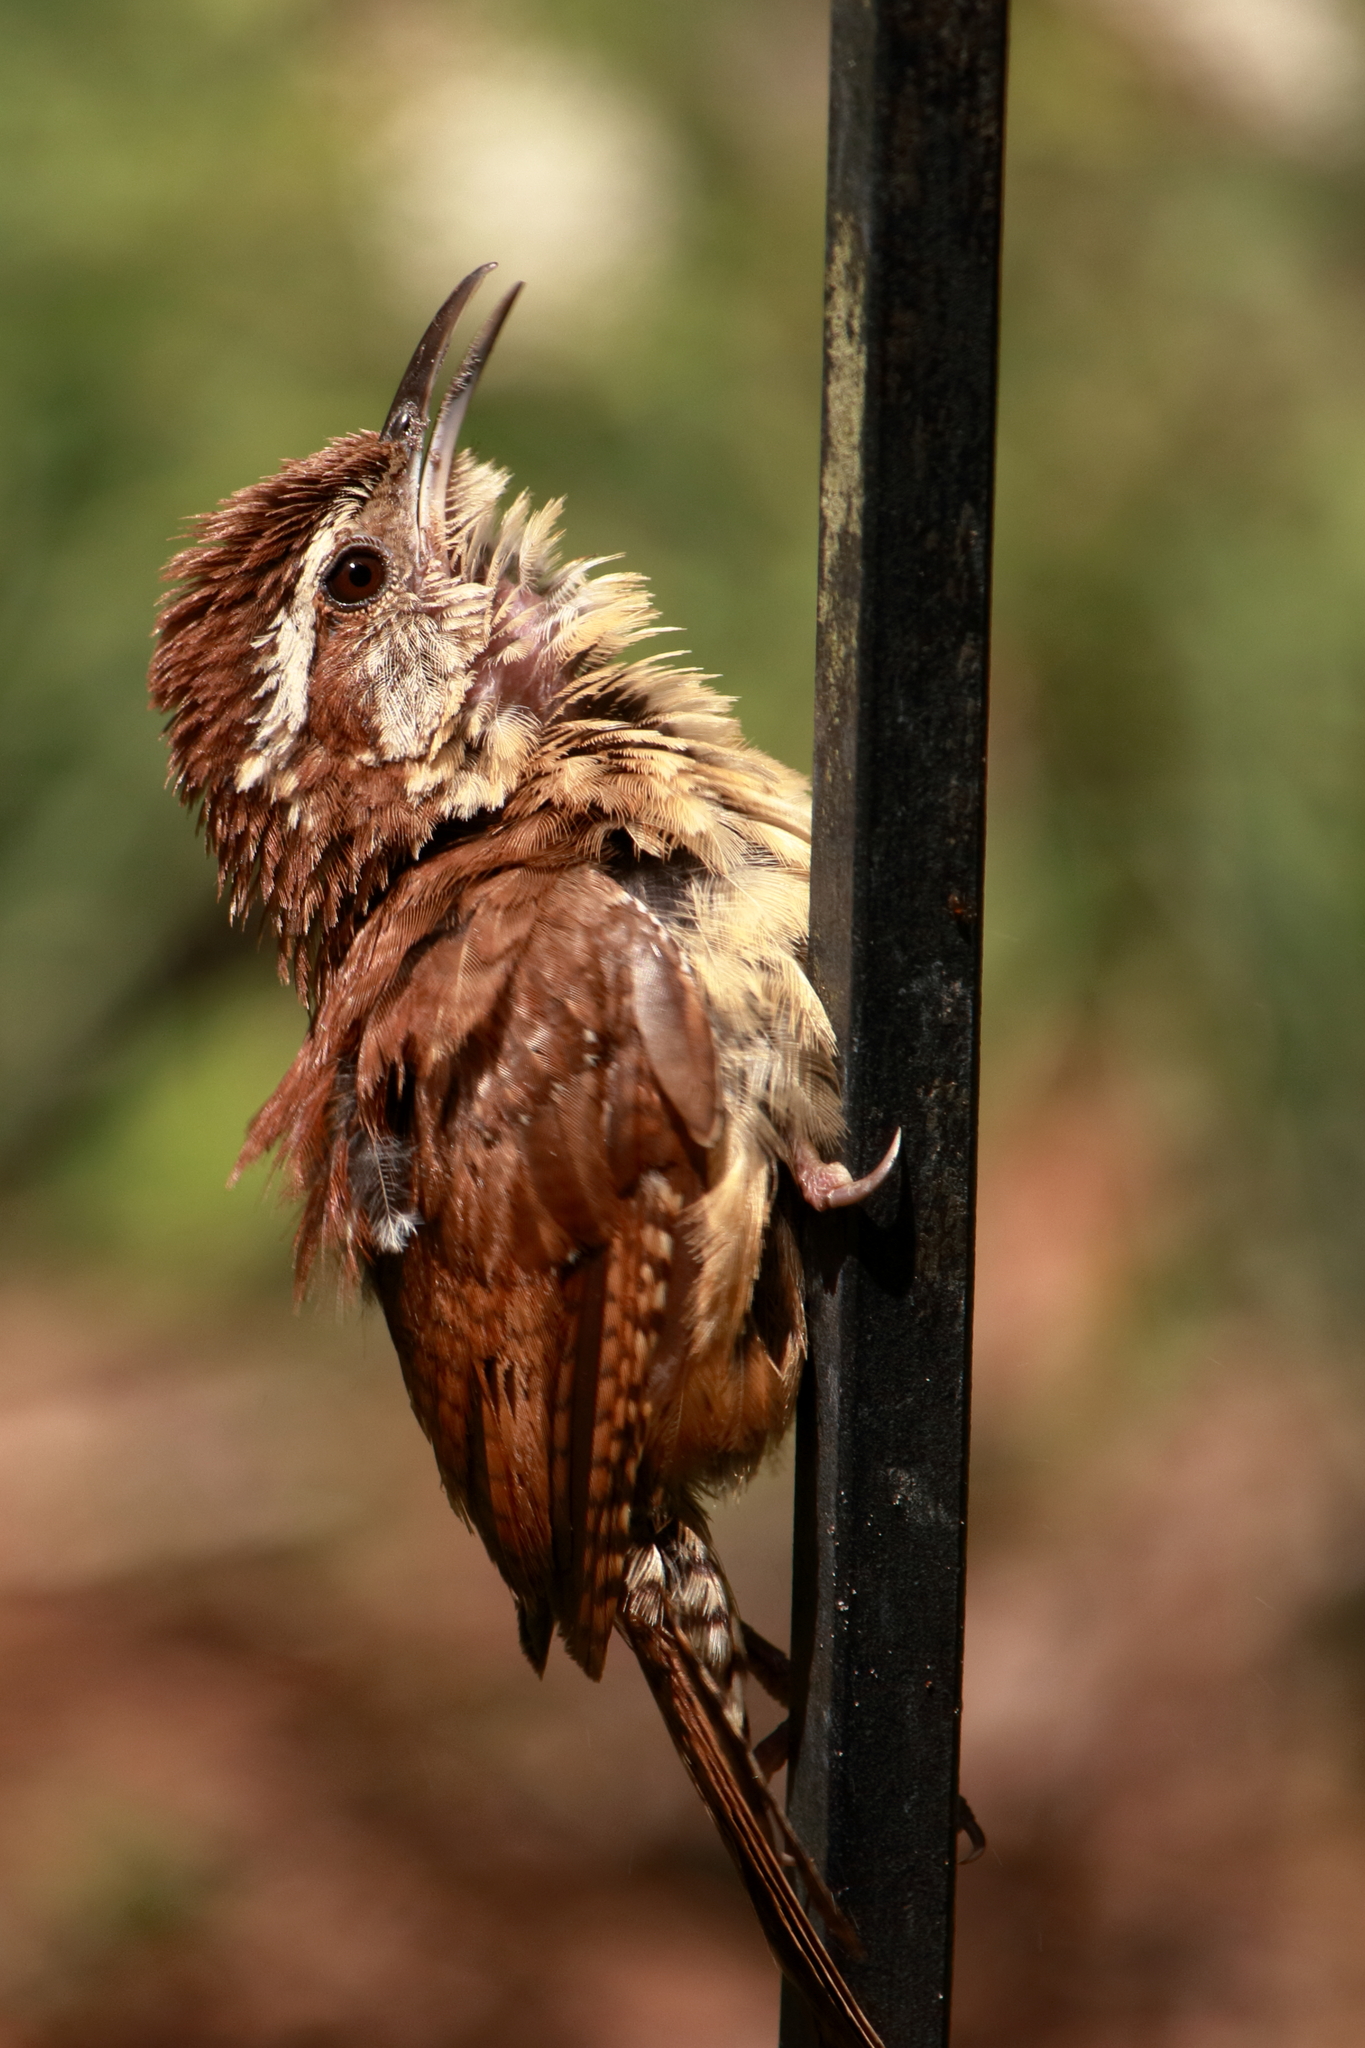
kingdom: Animalia
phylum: Chordata
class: Aves
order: Passeriformes
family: Troglodytidae
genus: Thryothorus
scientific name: Thryothorus ludovicianus
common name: Carolina wren
